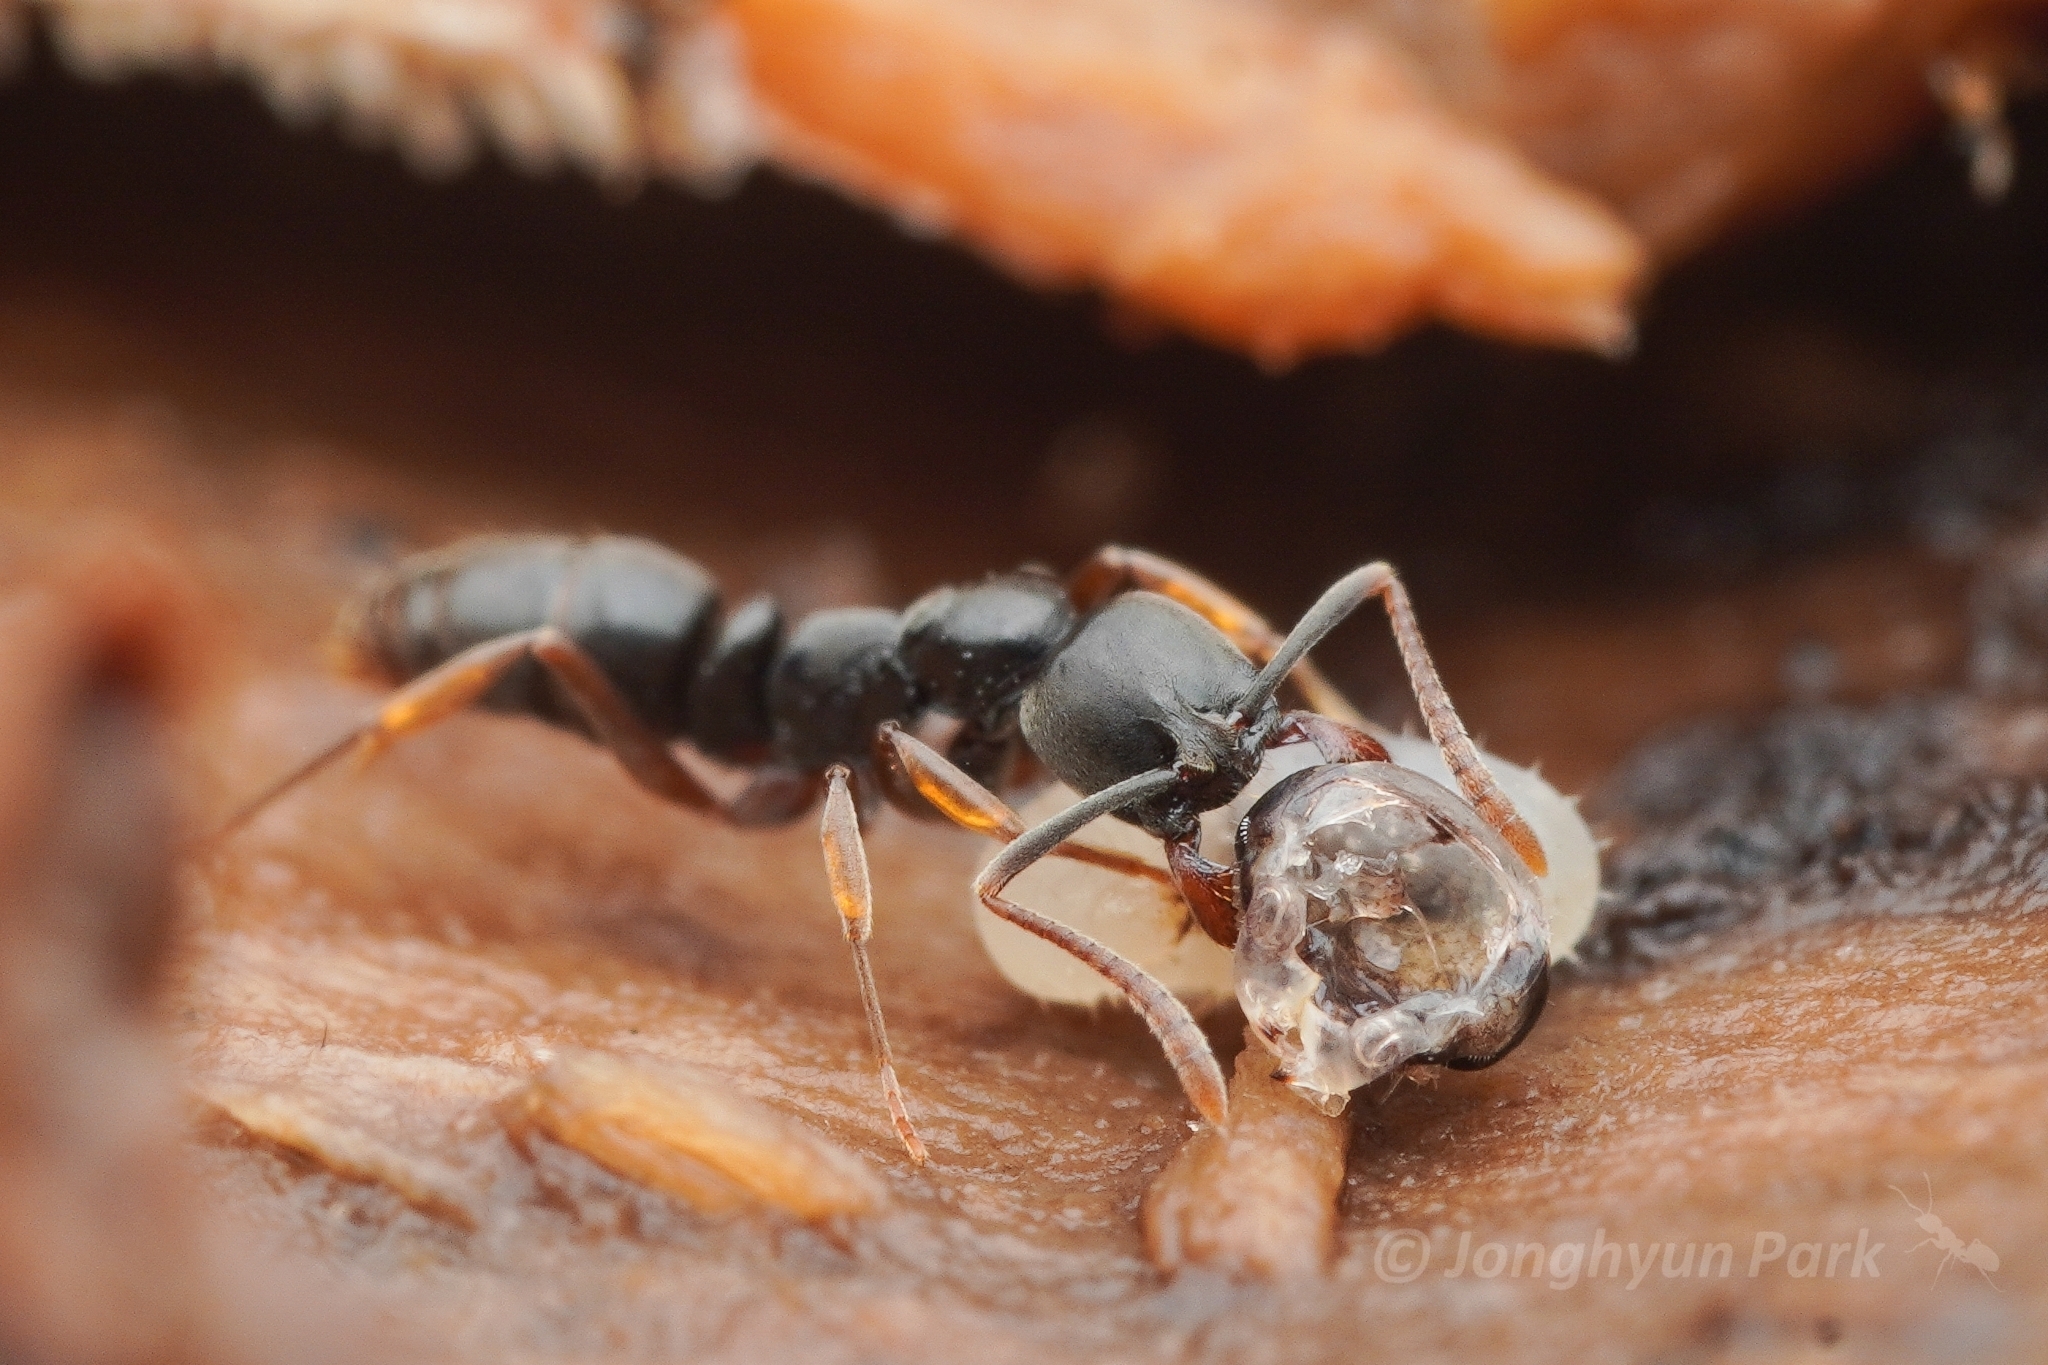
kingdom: Animalia
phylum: Arthropoda
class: Insecta
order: Hymenoptera
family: Formicidae
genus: Pachycondyla
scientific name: Pachycondyla chinensis
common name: Asian needle ant
